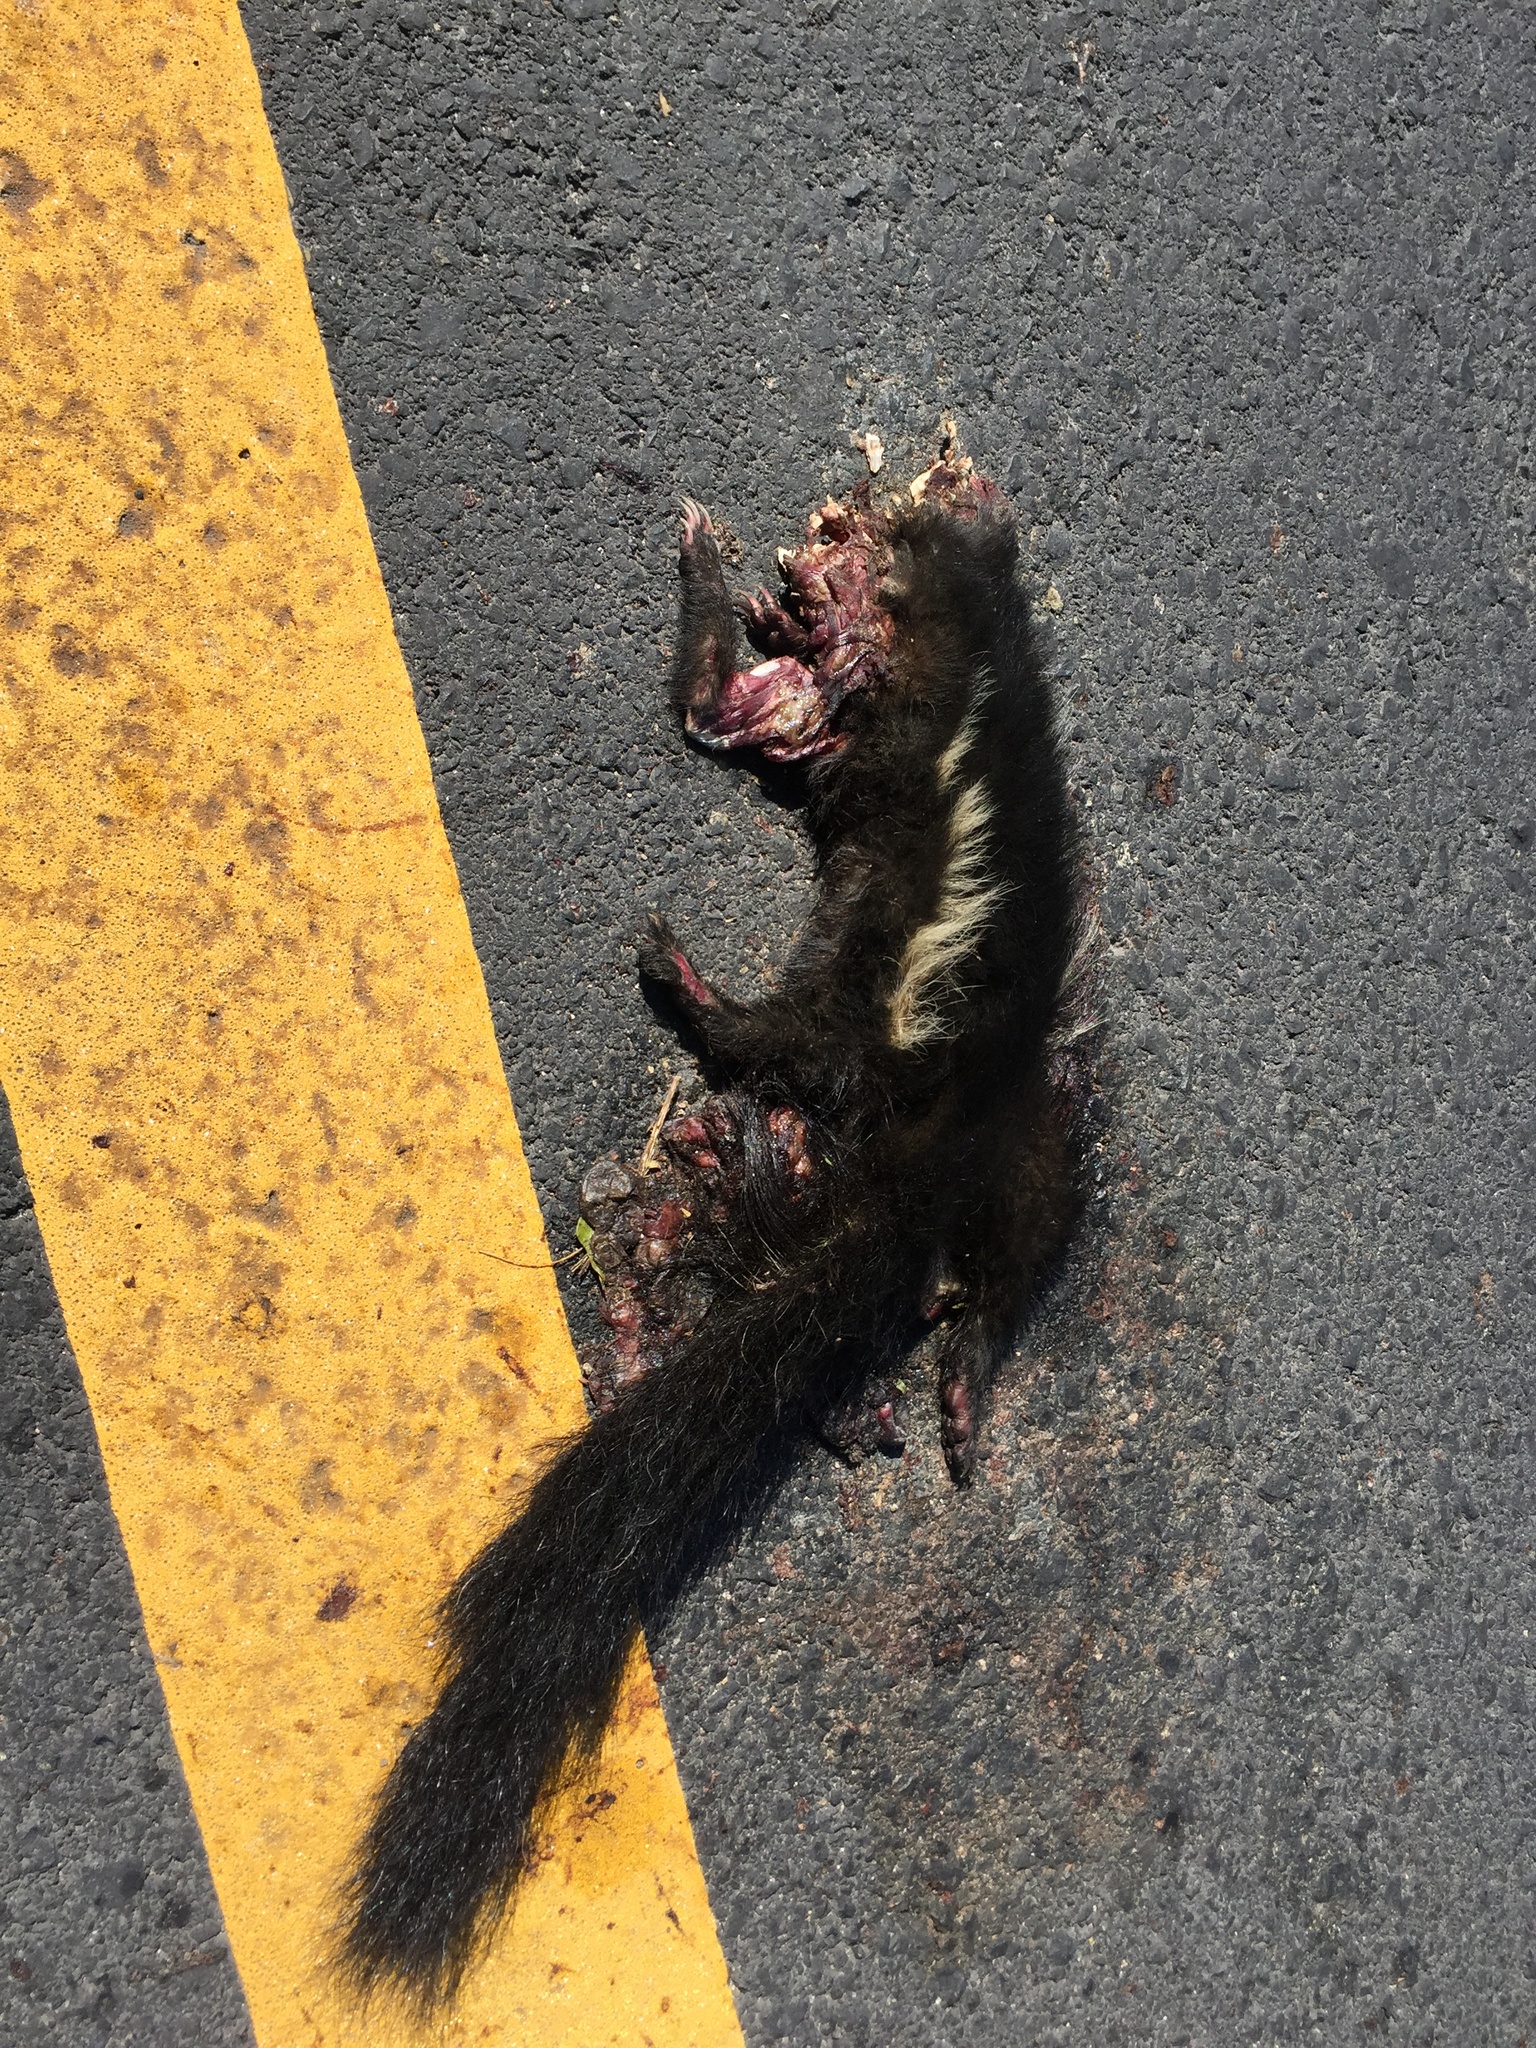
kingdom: Animalia
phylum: Chordata
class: Mammalia
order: Carnivora
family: Mephitidae
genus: Mephitis
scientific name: Mephitis macroura
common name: Hooded skunk
